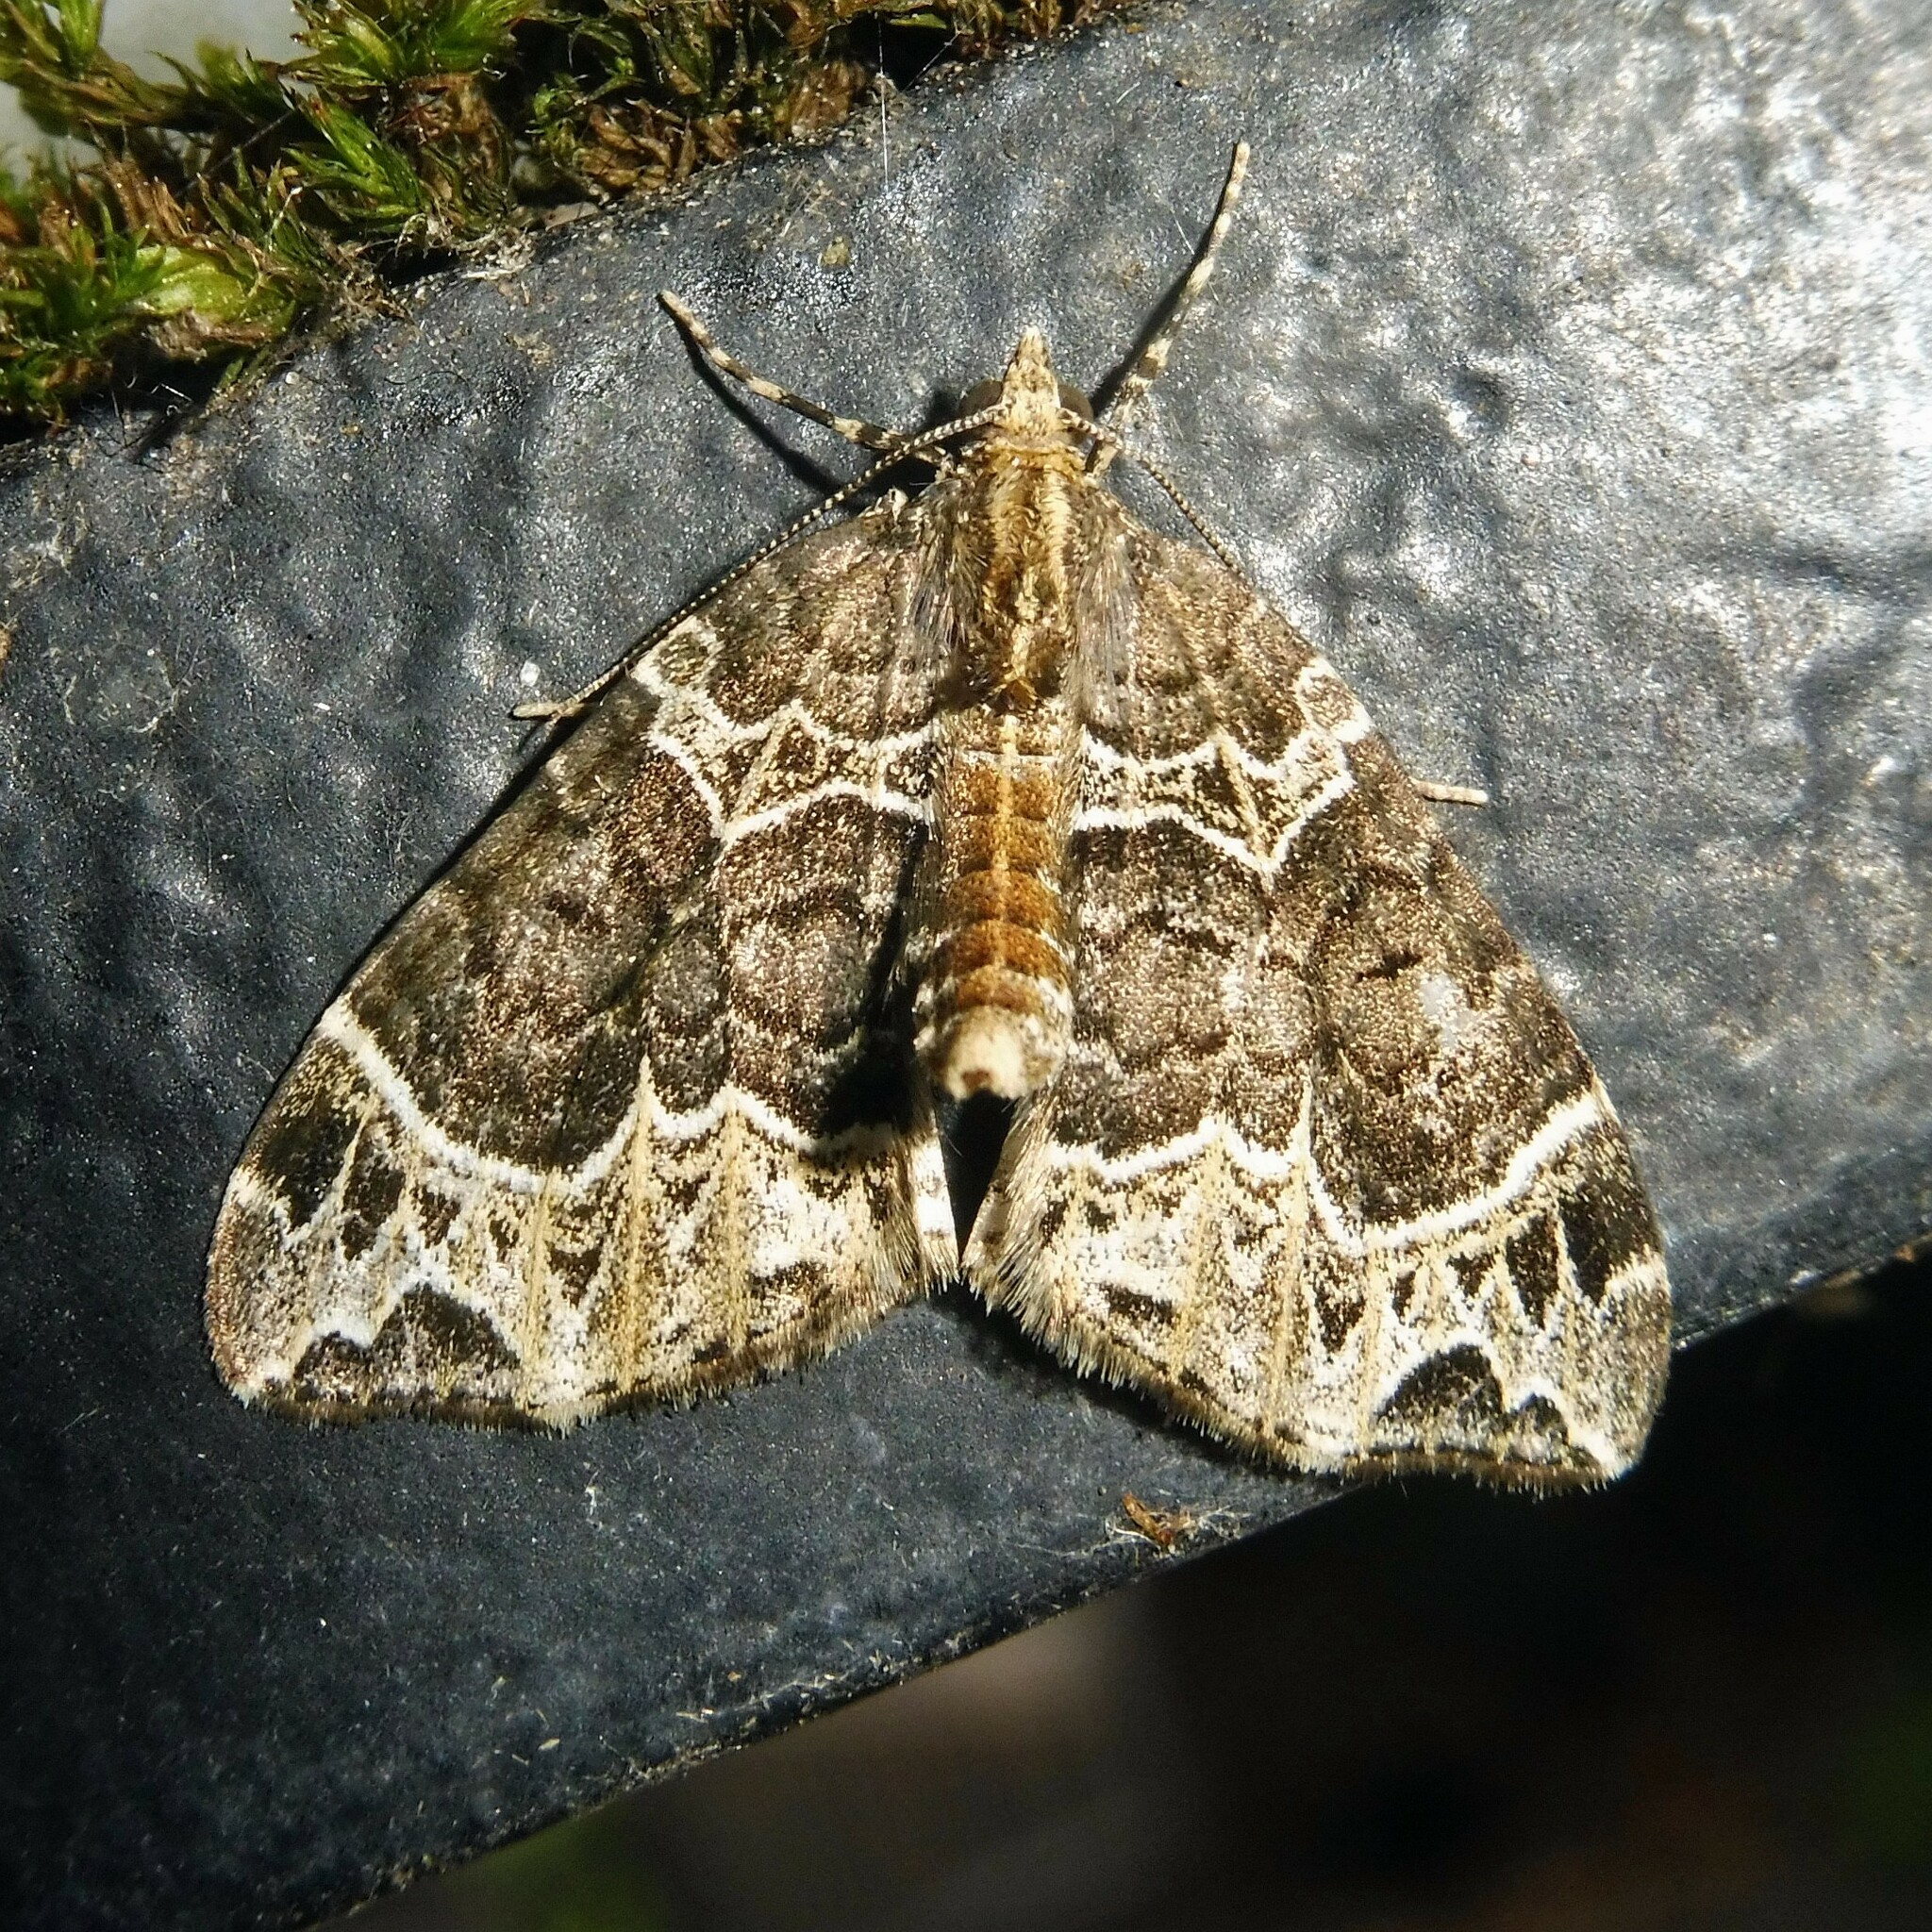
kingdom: Animalia
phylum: Arthropoda
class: Insecta
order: Lepidoptera
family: Geometridae
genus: Ecliptopera
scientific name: Ecliptopera silaceata
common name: Small phoenix
